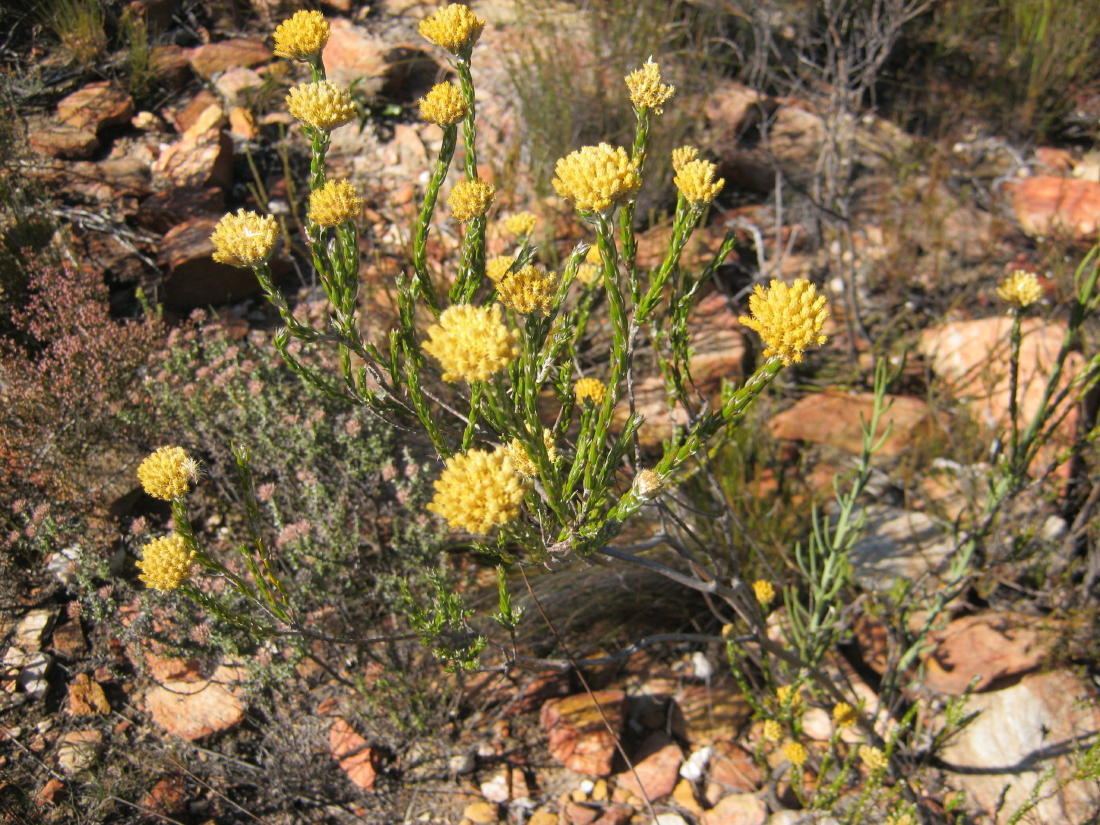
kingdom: Plantae
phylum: Tracheophyta
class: Magnoliopsida
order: Asterales
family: Asteraceae
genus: Metalasia
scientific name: Metalasia pulcherrima
